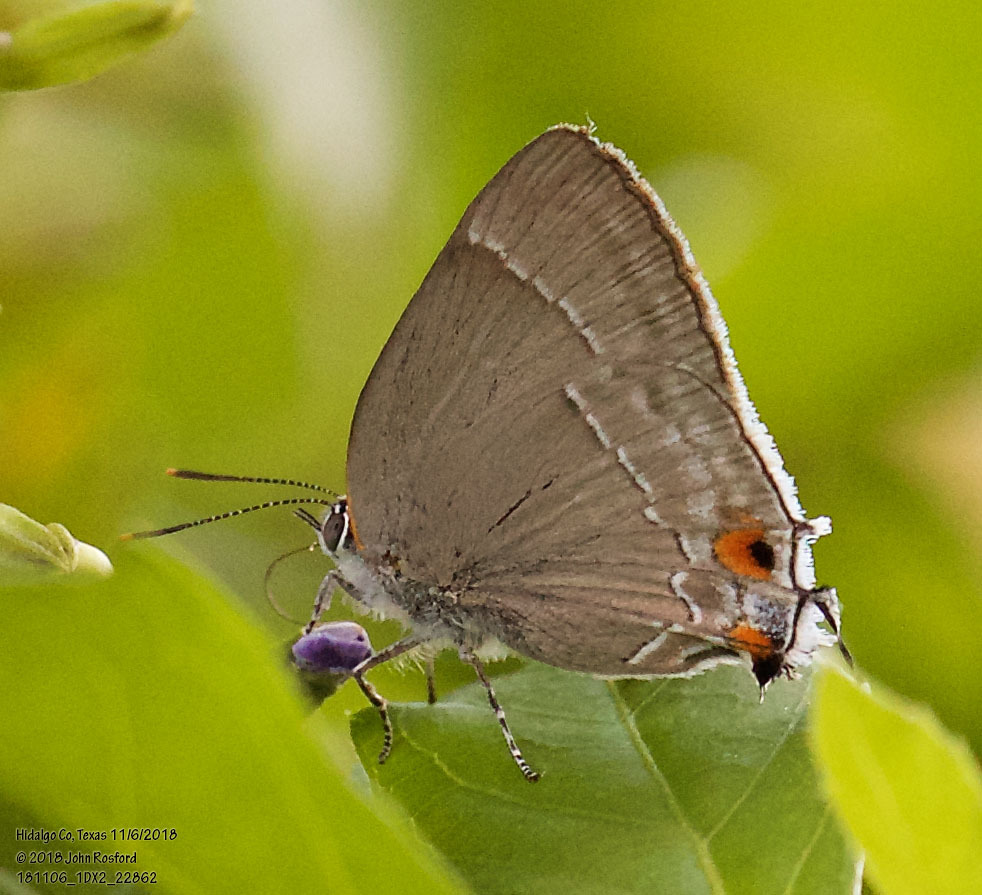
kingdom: Animalia
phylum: Arthropoda
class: Insecta
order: Lepidoptera
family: Lycaenidae
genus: Thecla
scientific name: Thecla marius
